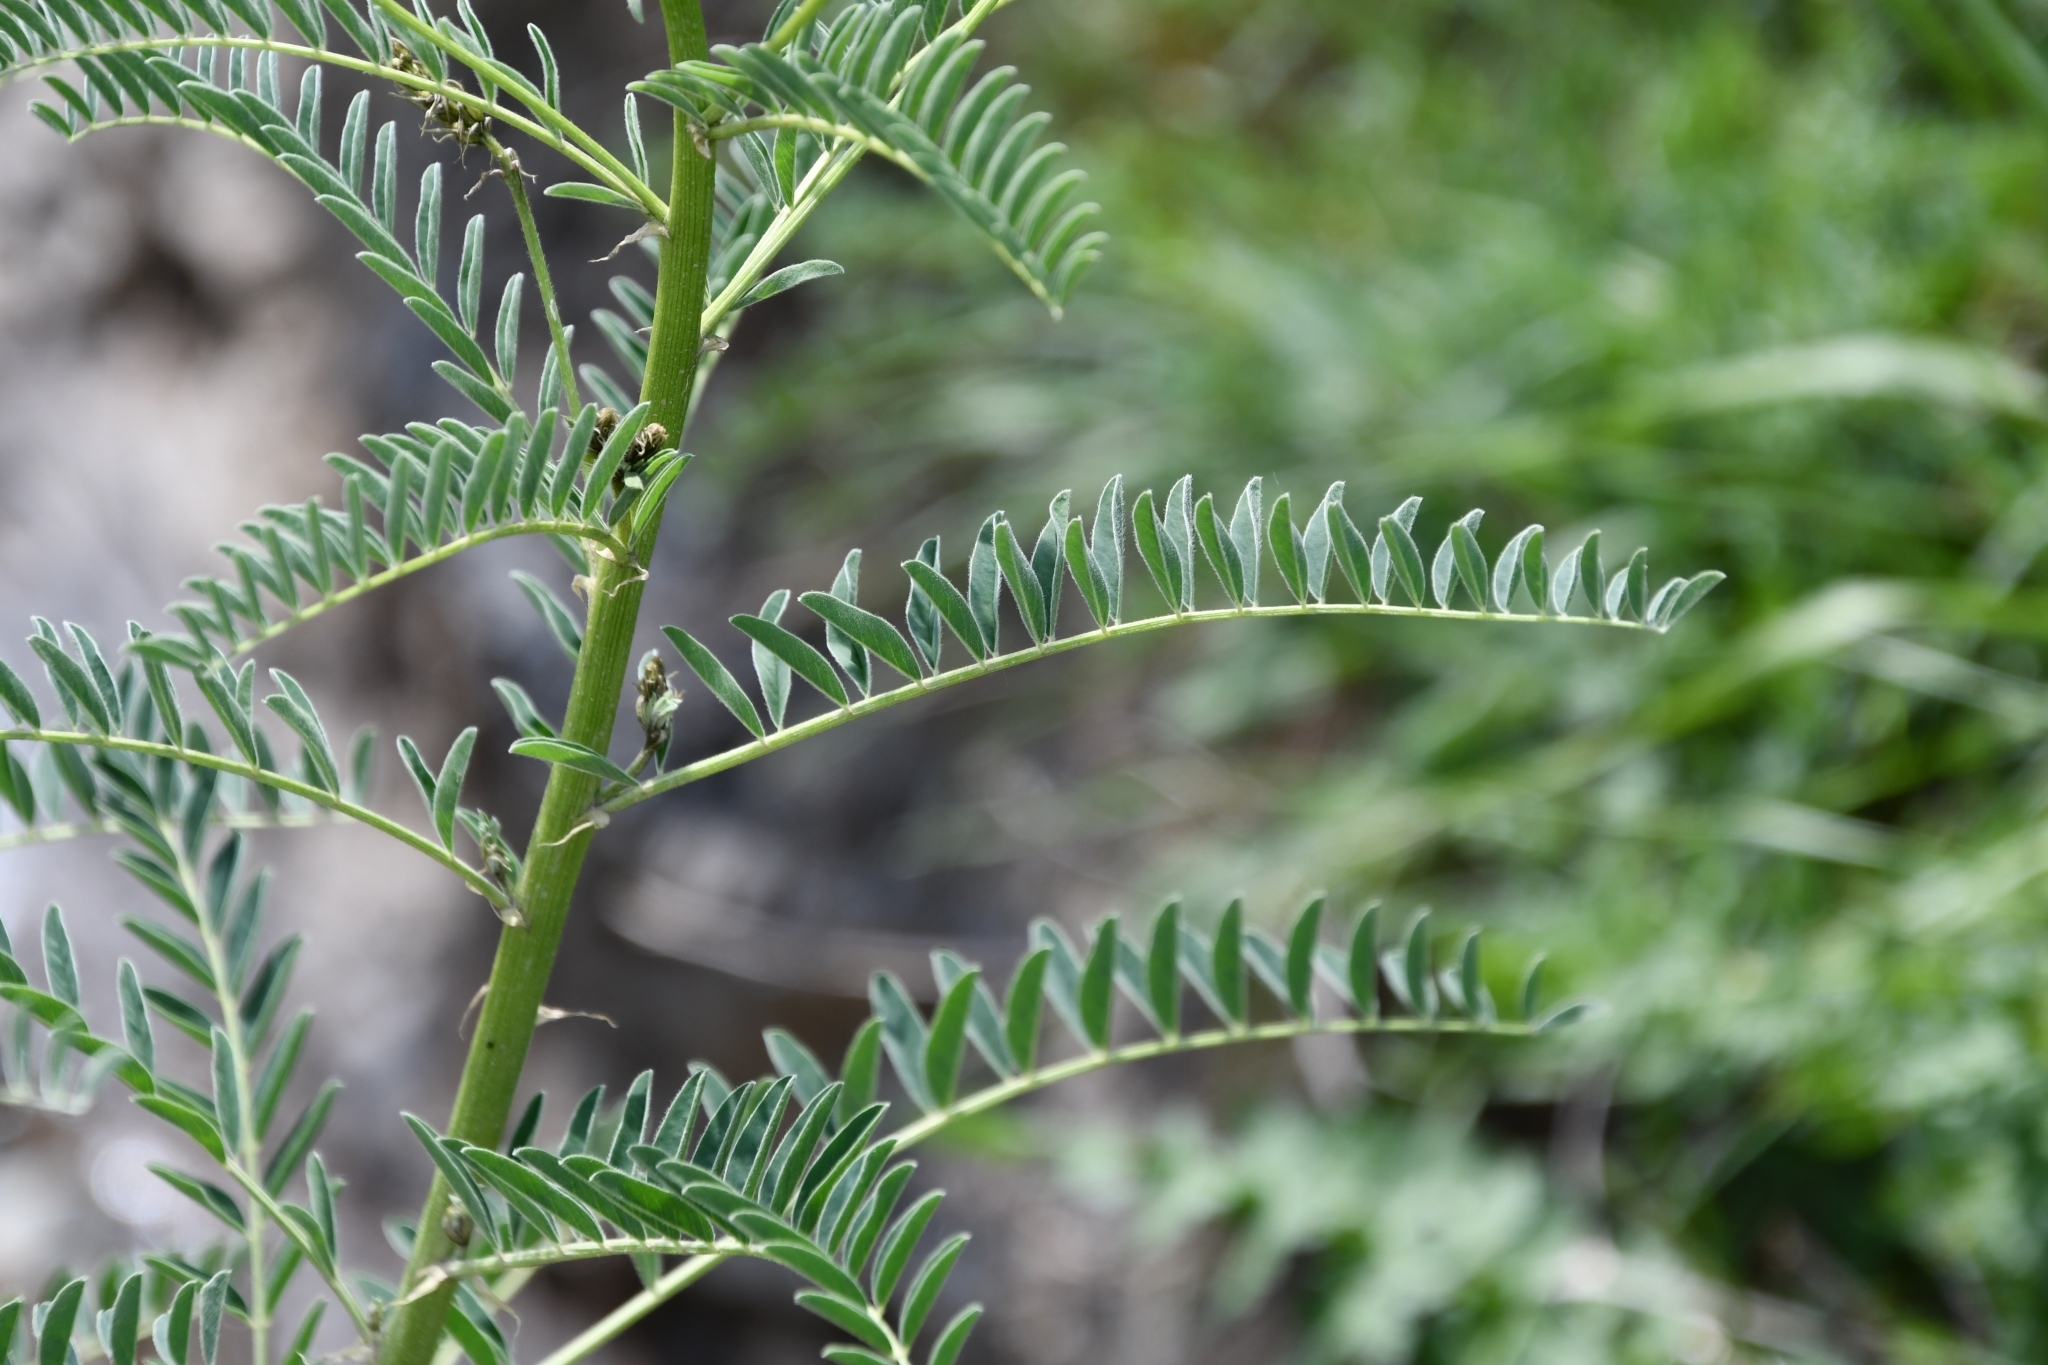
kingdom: Plantae
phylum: Tracheophyta
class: Magnoliopsida
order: Fabales
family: Fabaceae
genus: Astragalus
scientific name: Astragalus galegiformis
